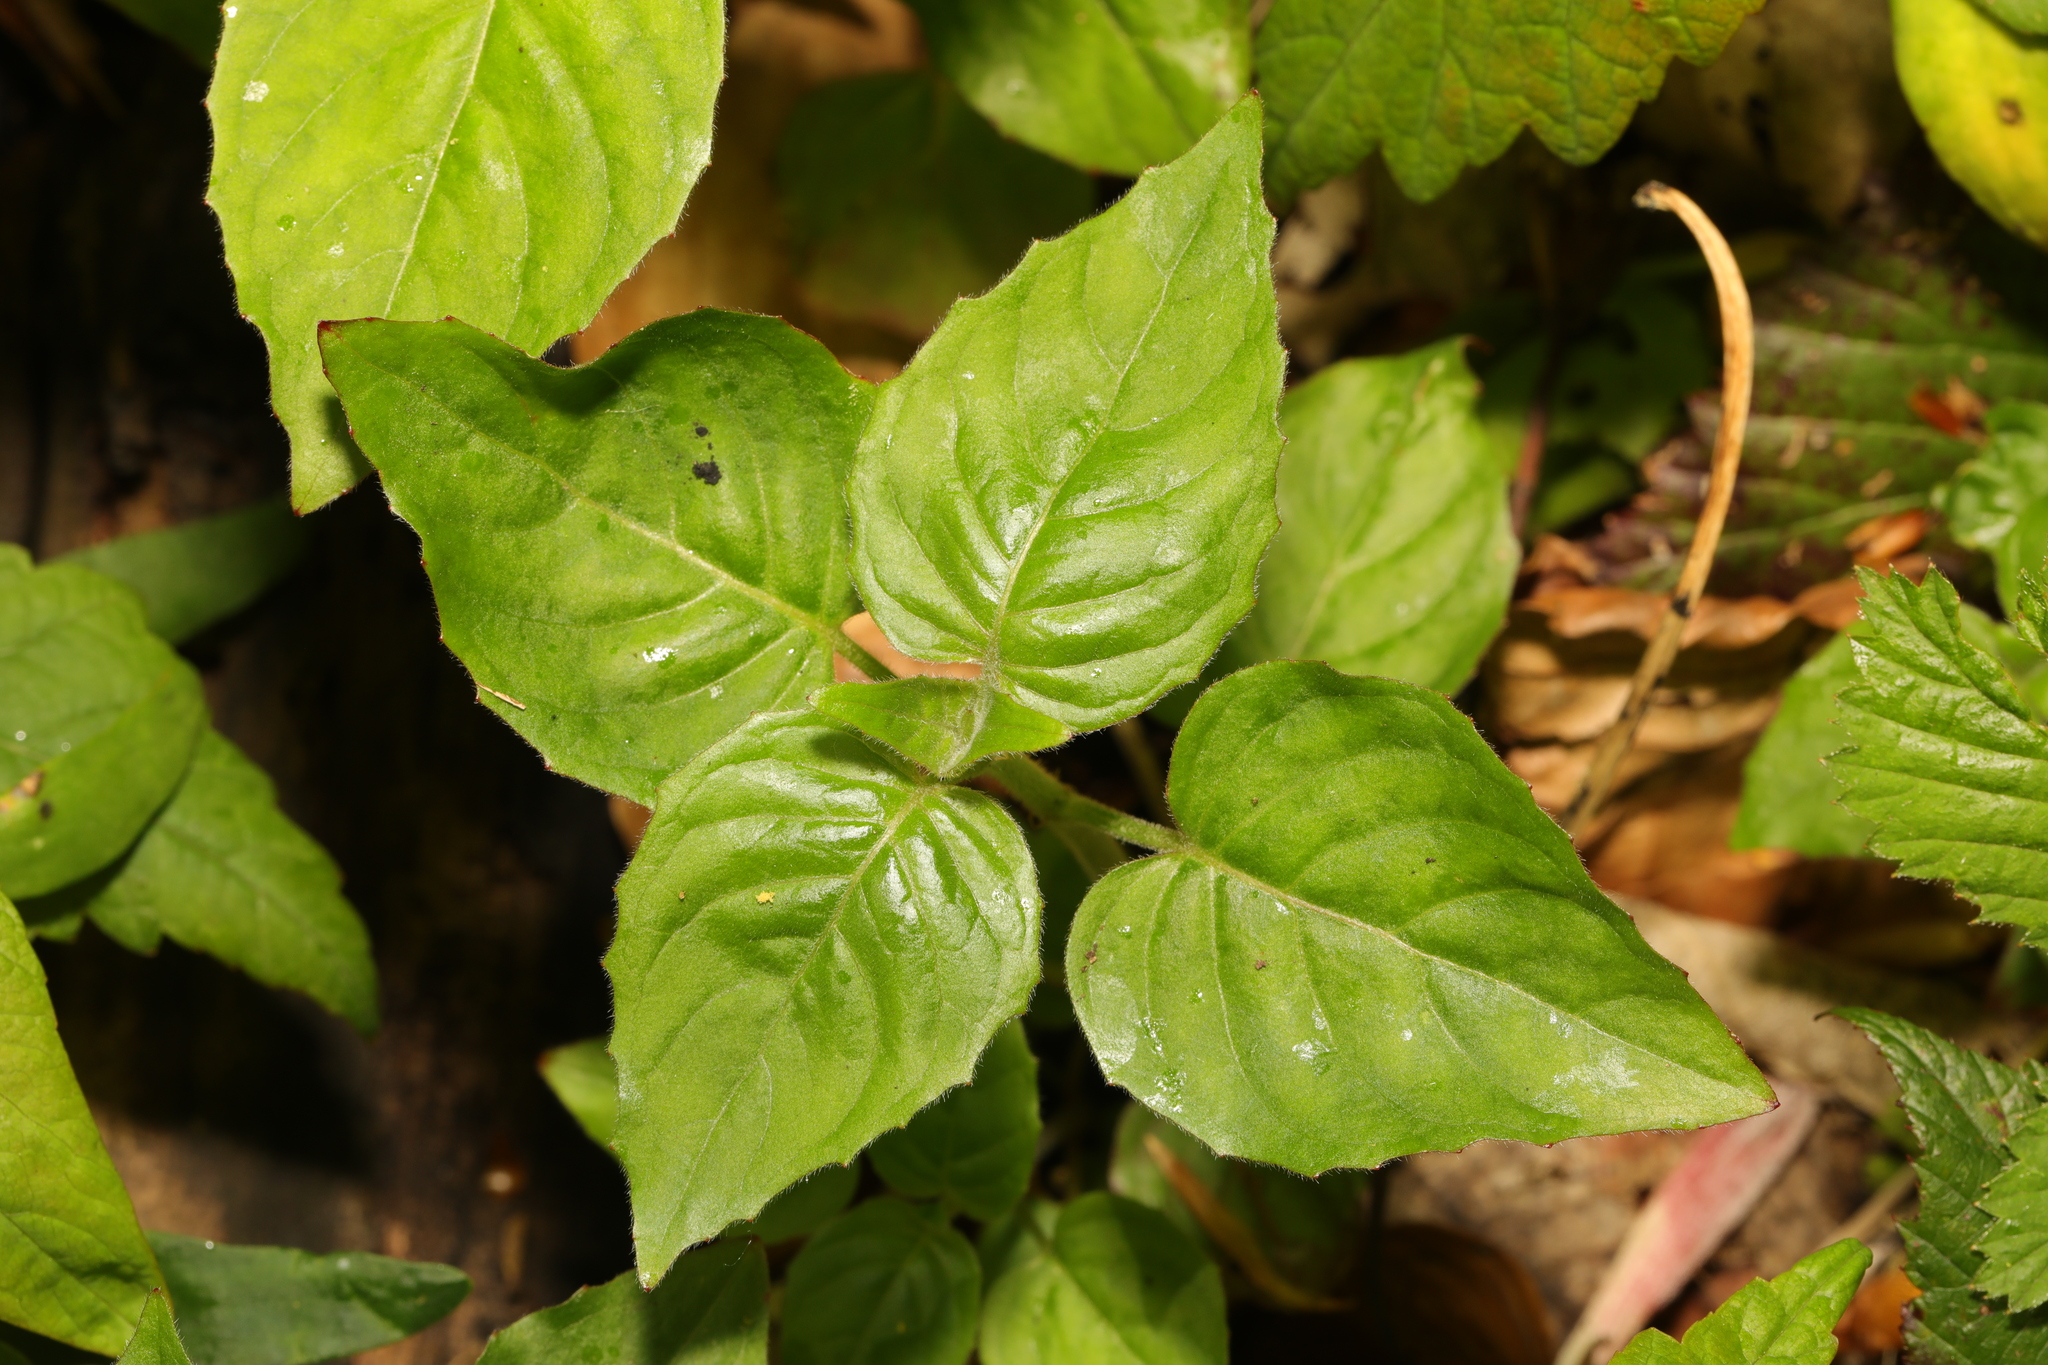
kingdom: Plantae
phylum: Tracheophyta
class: Magnoliopsida
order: Myrtales
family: Onagraceae
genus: Circaea
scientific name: Circaea lutetiana
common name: Enchanter's-nightshade
